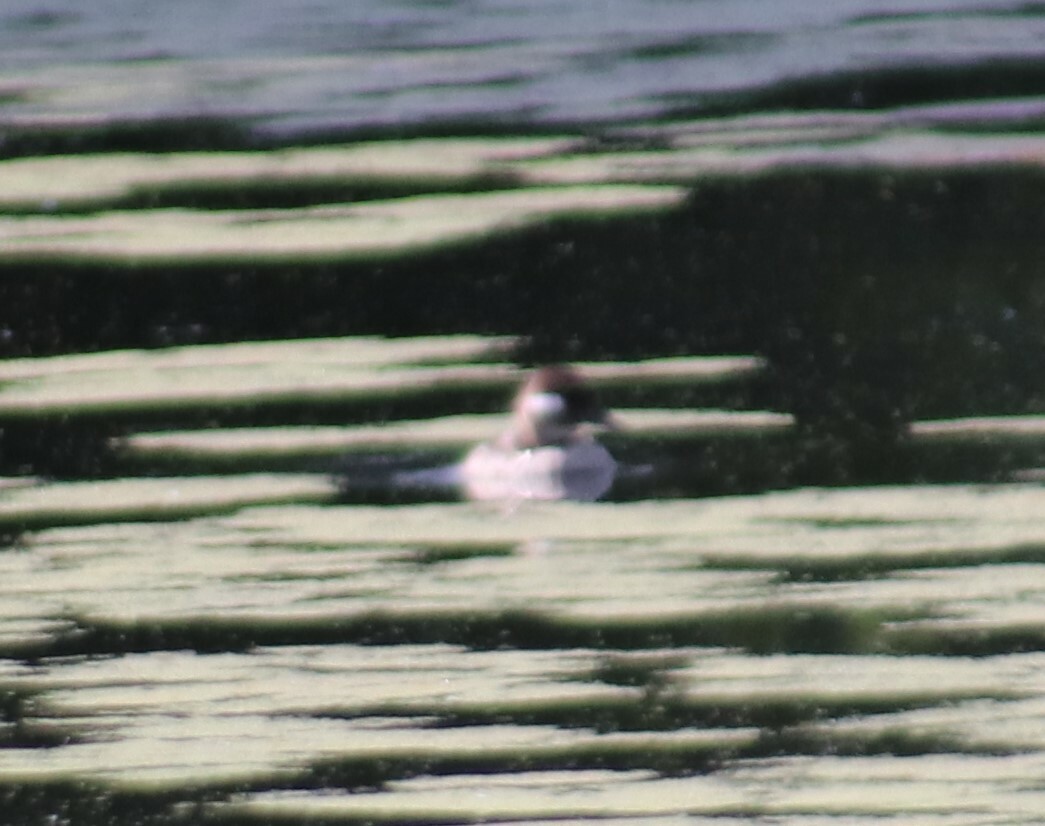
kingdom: Animalia
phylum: Chordata
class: Aves
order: Anseriformes
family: Anatidae
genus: Bucephala
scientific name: Bucephala albeola
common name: Bufflehead
